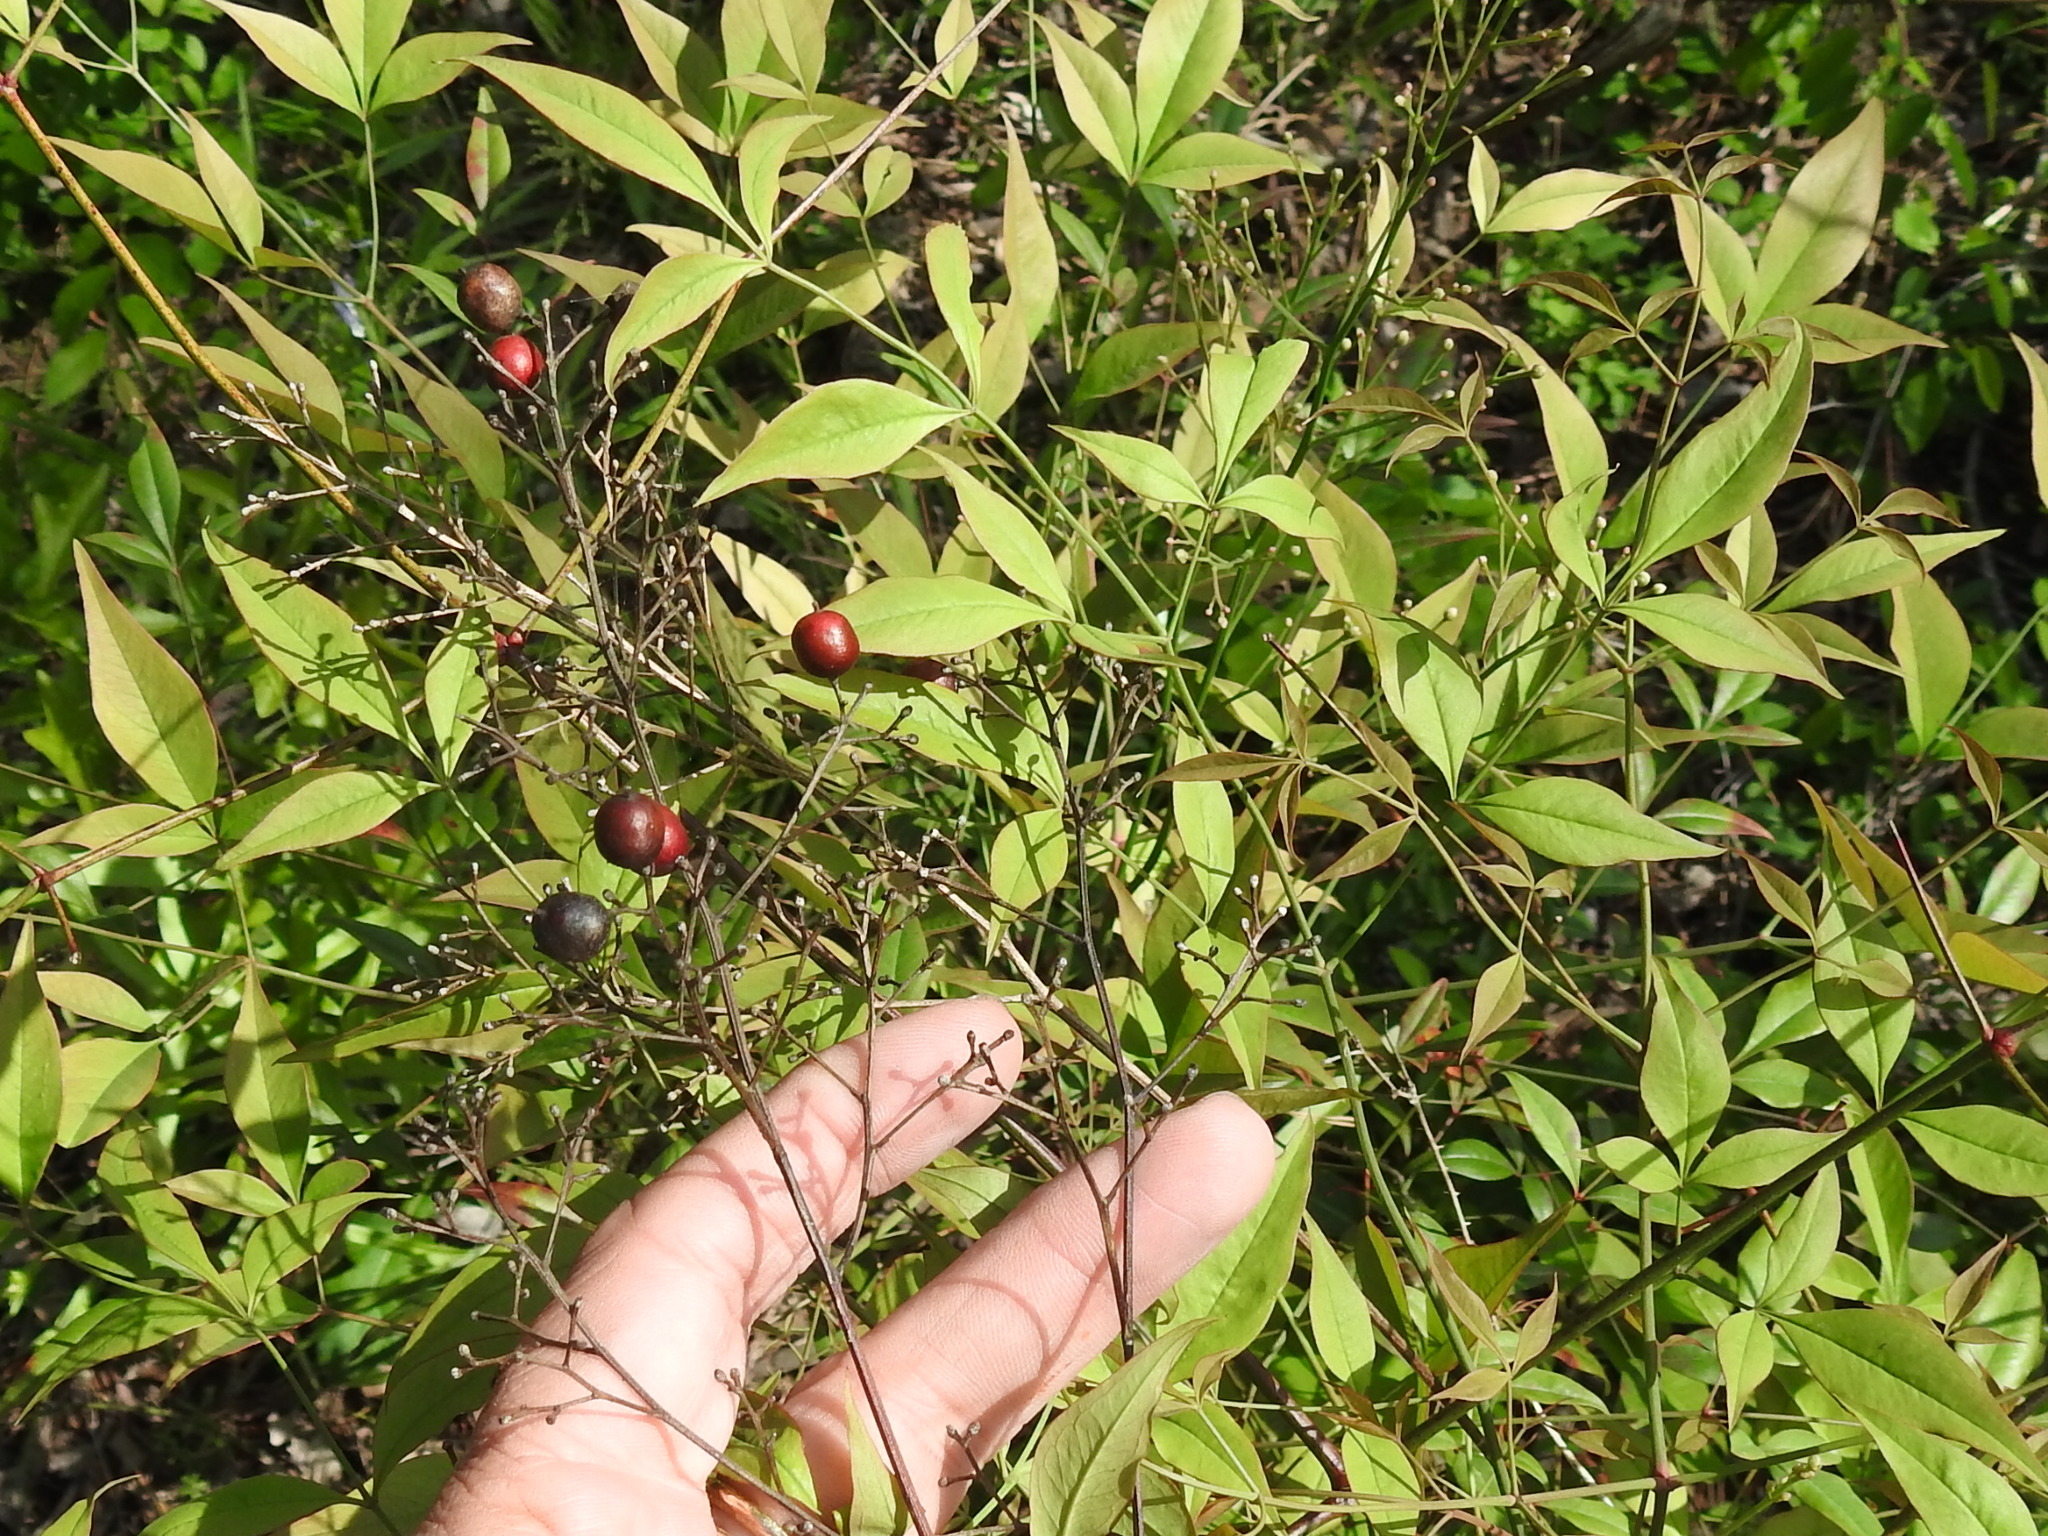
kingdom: Plantae
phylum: Tracheophyta
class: Magnoliopsida
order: Ranunculales
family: Berberidaceae
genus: Nandina
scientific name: Nandina domestica
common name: Sacred bamboo
